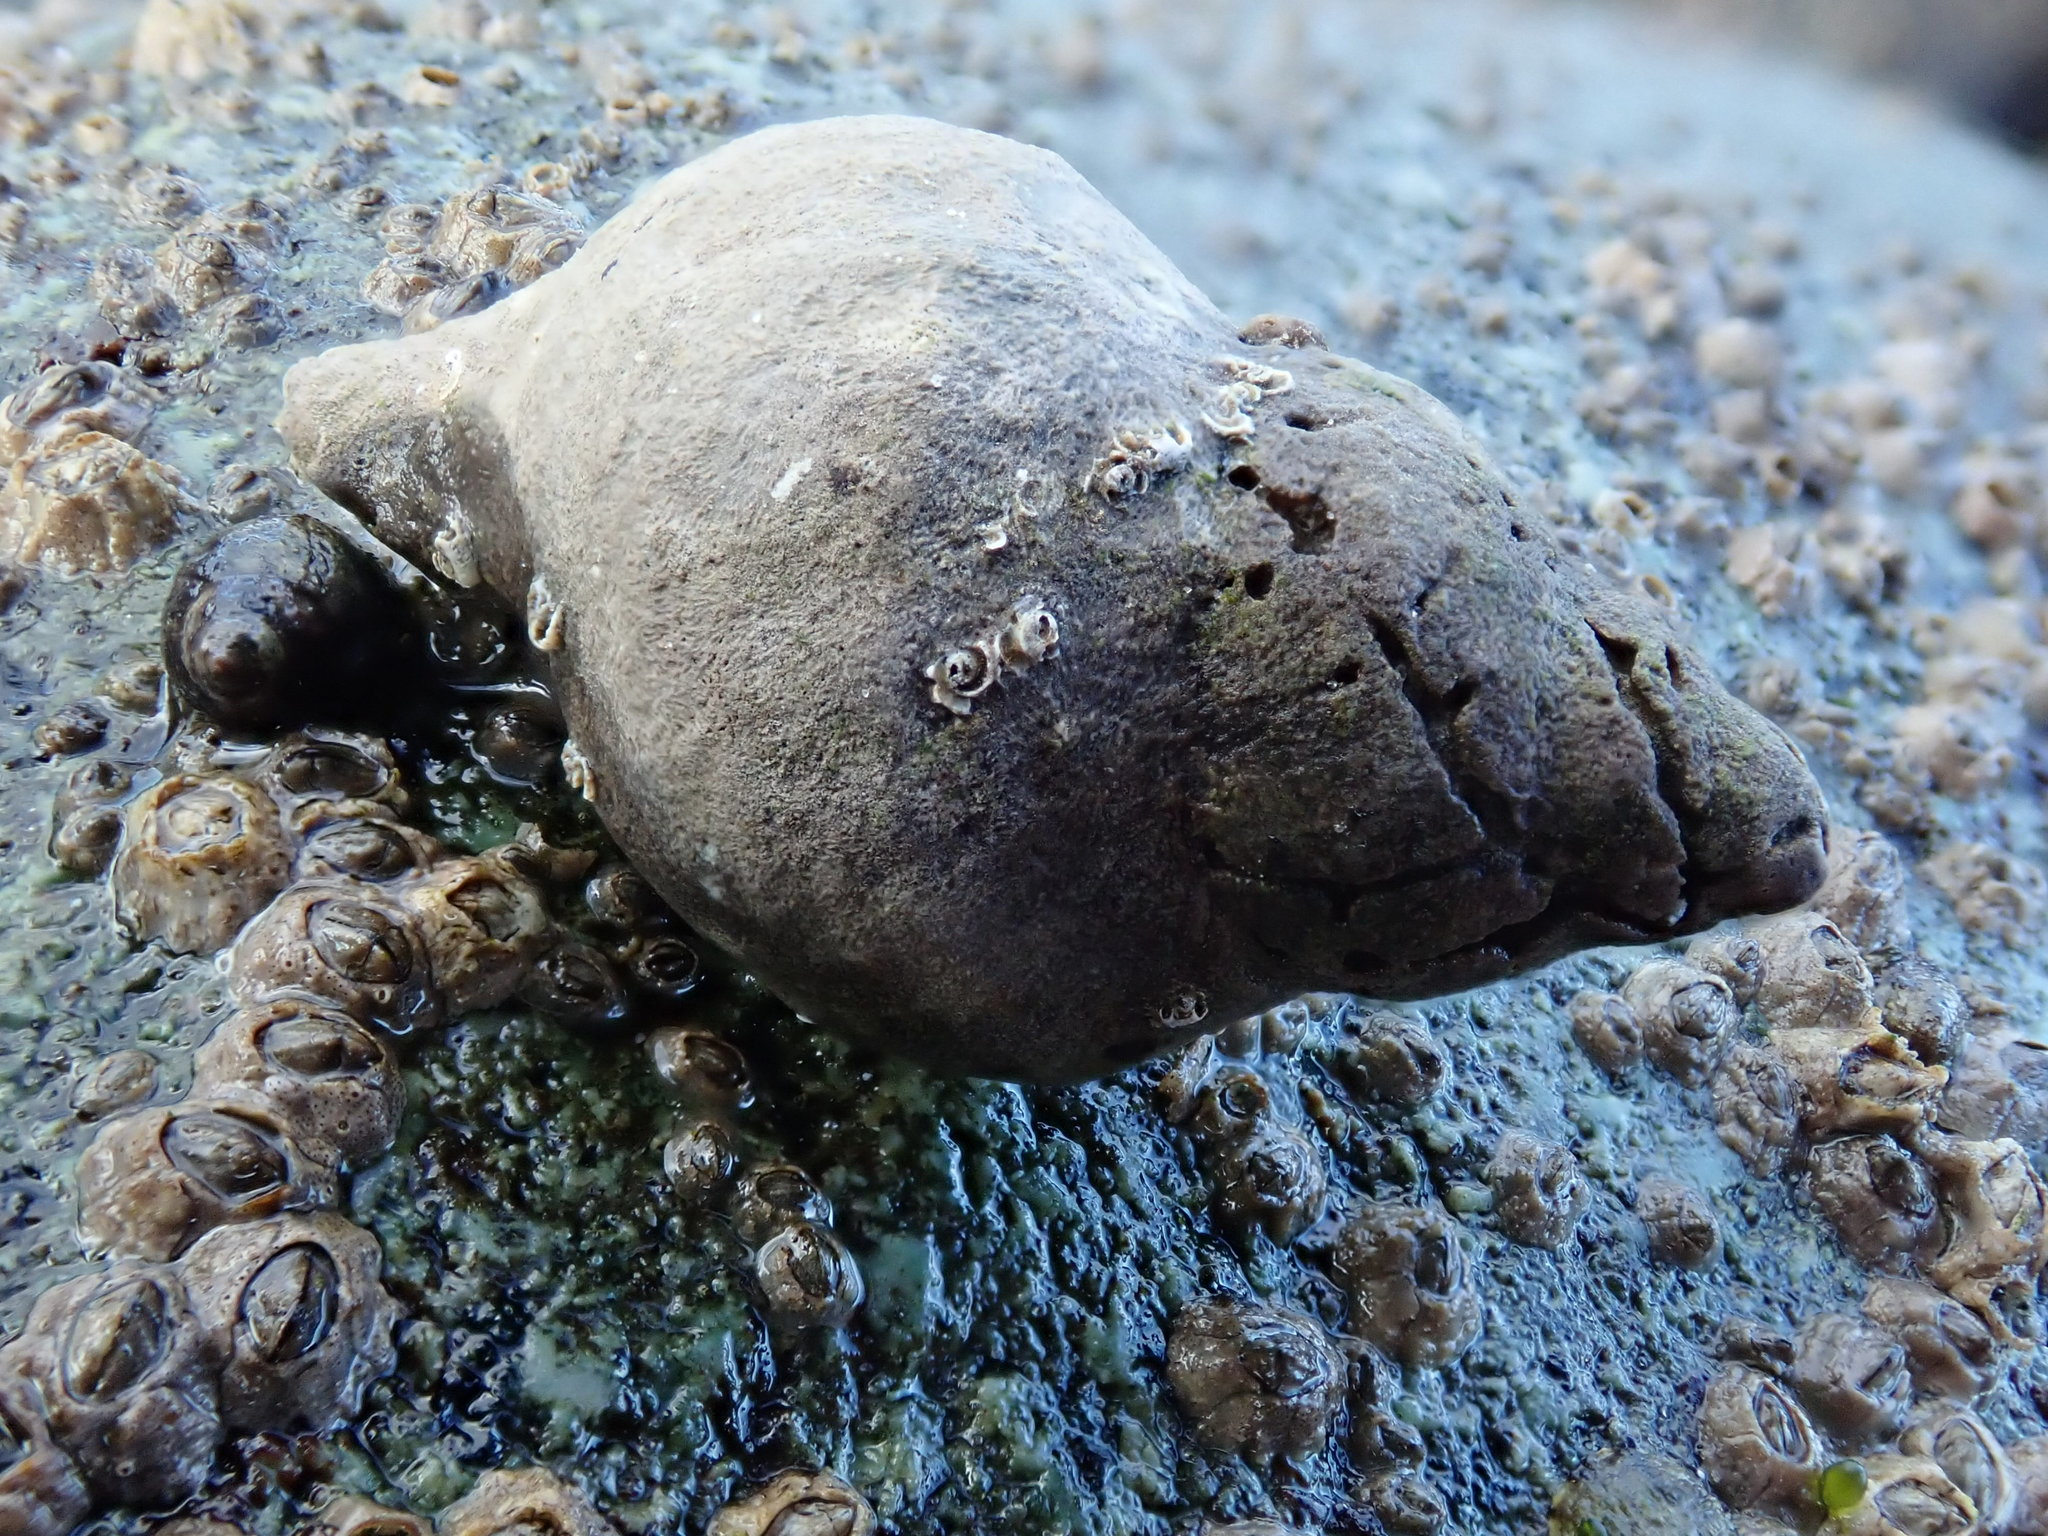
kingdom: Animalia
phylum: Mollusca
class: Gastropoda
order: Neogastropoda
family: Muricidae
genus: Nucella
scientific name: Nucella lamellosa
